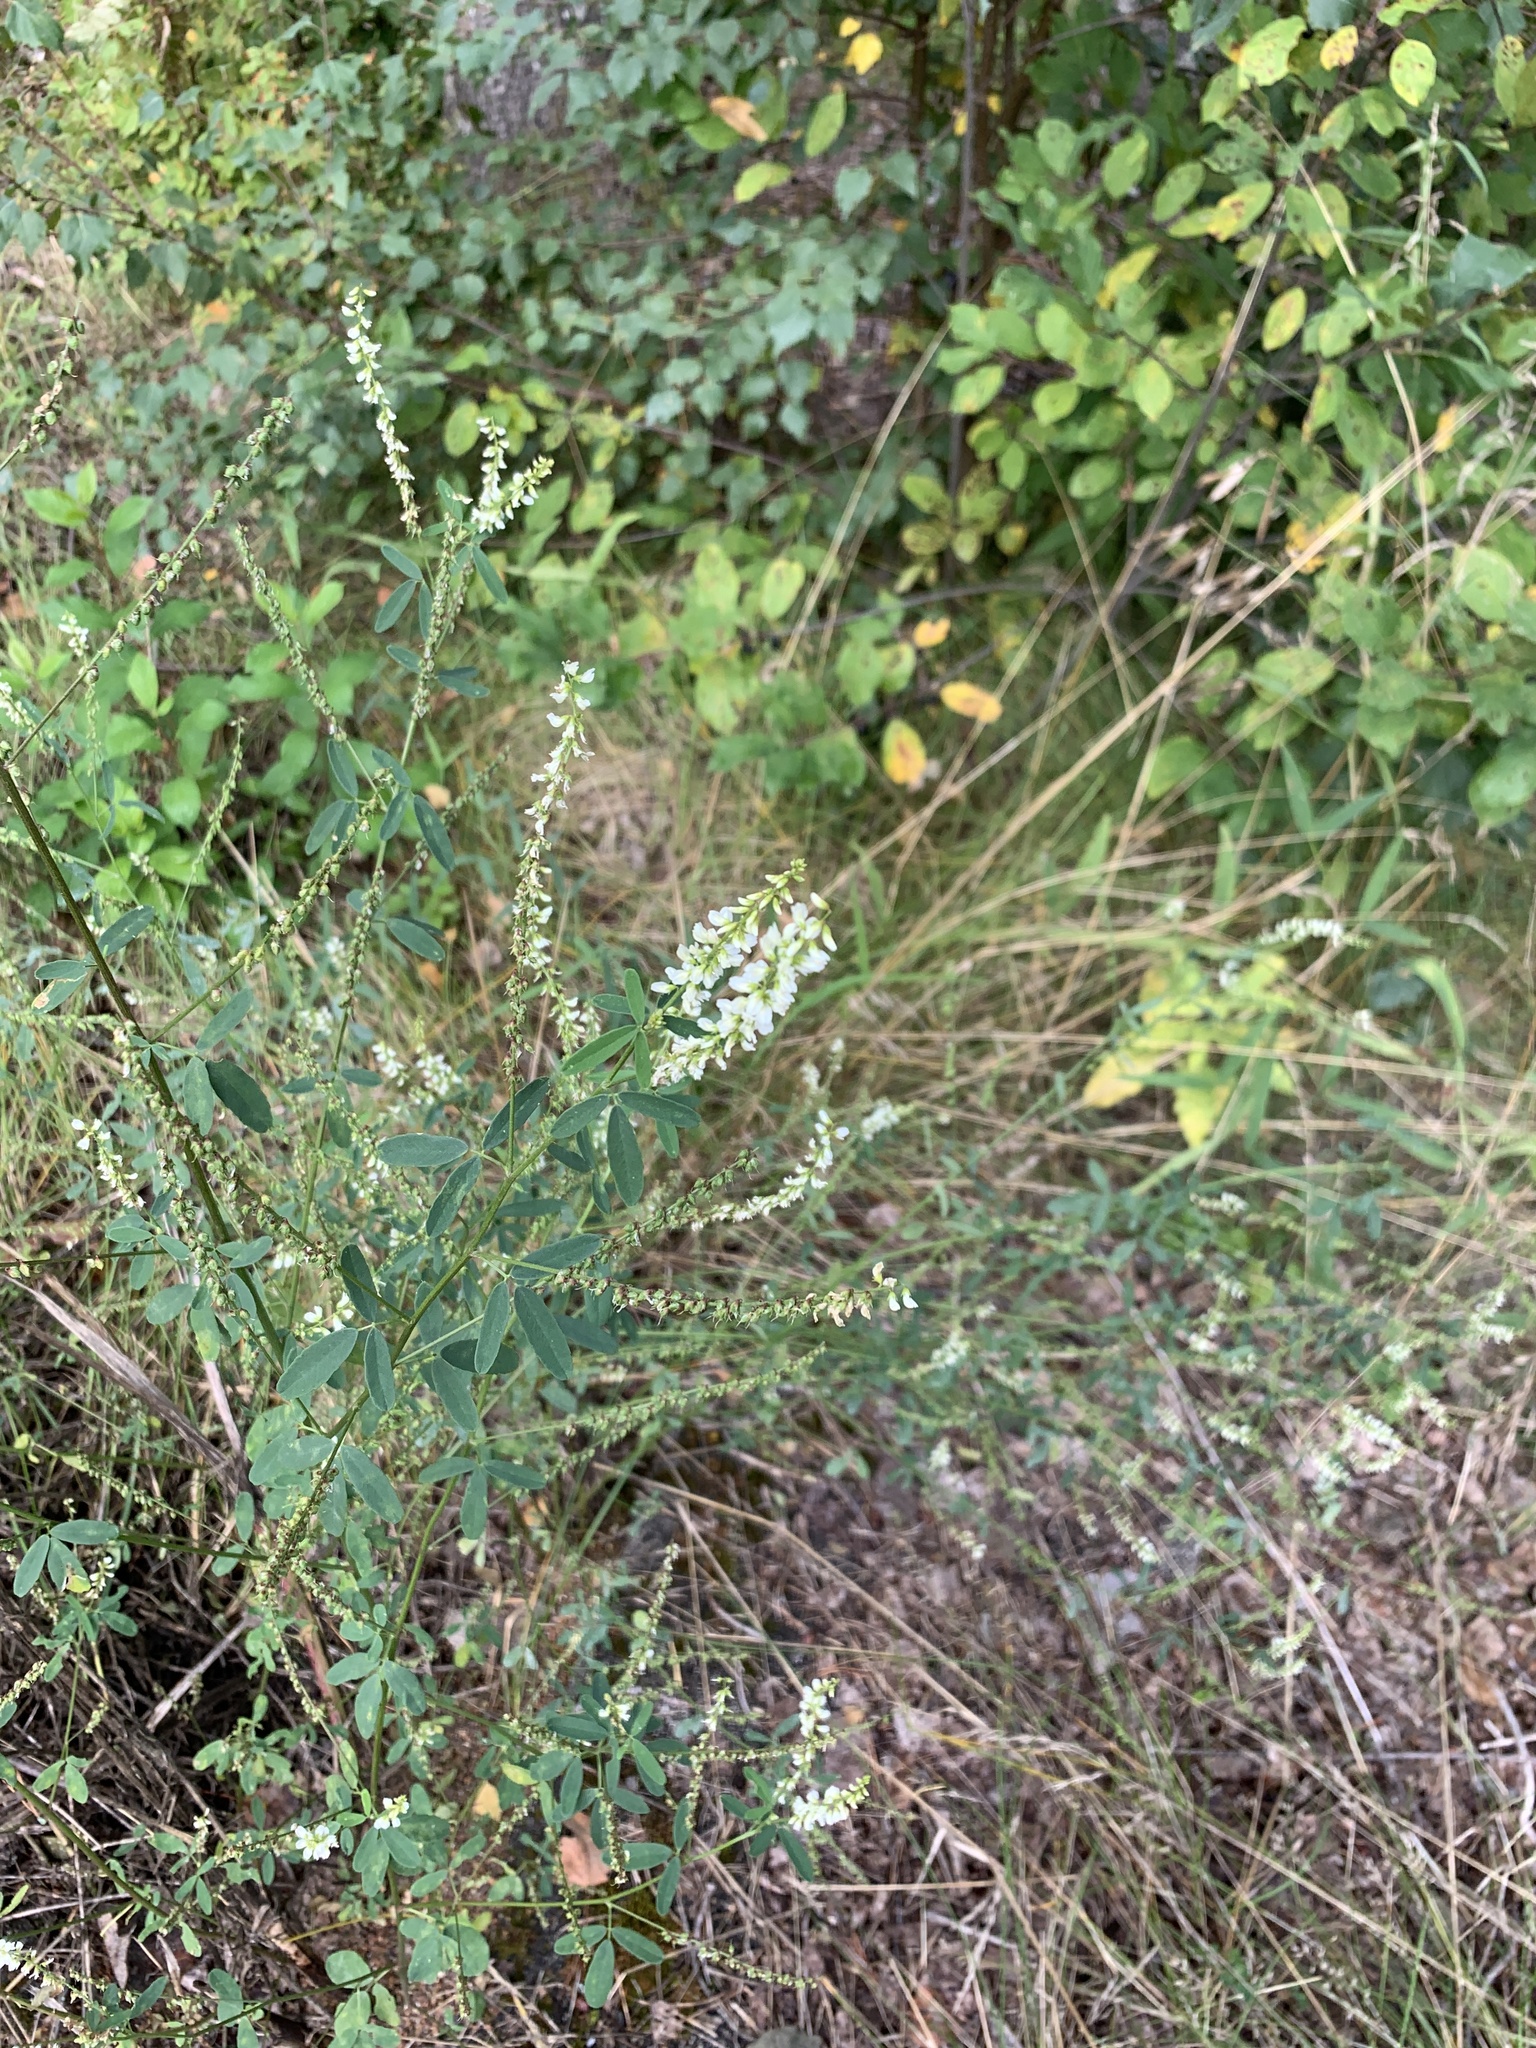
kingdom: Plantae
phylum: Tracheophyta
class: Magnoliopsida
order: Fabales
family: Fabaceae
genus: Melilotus
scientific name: Melilotus albus
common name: White melilot
